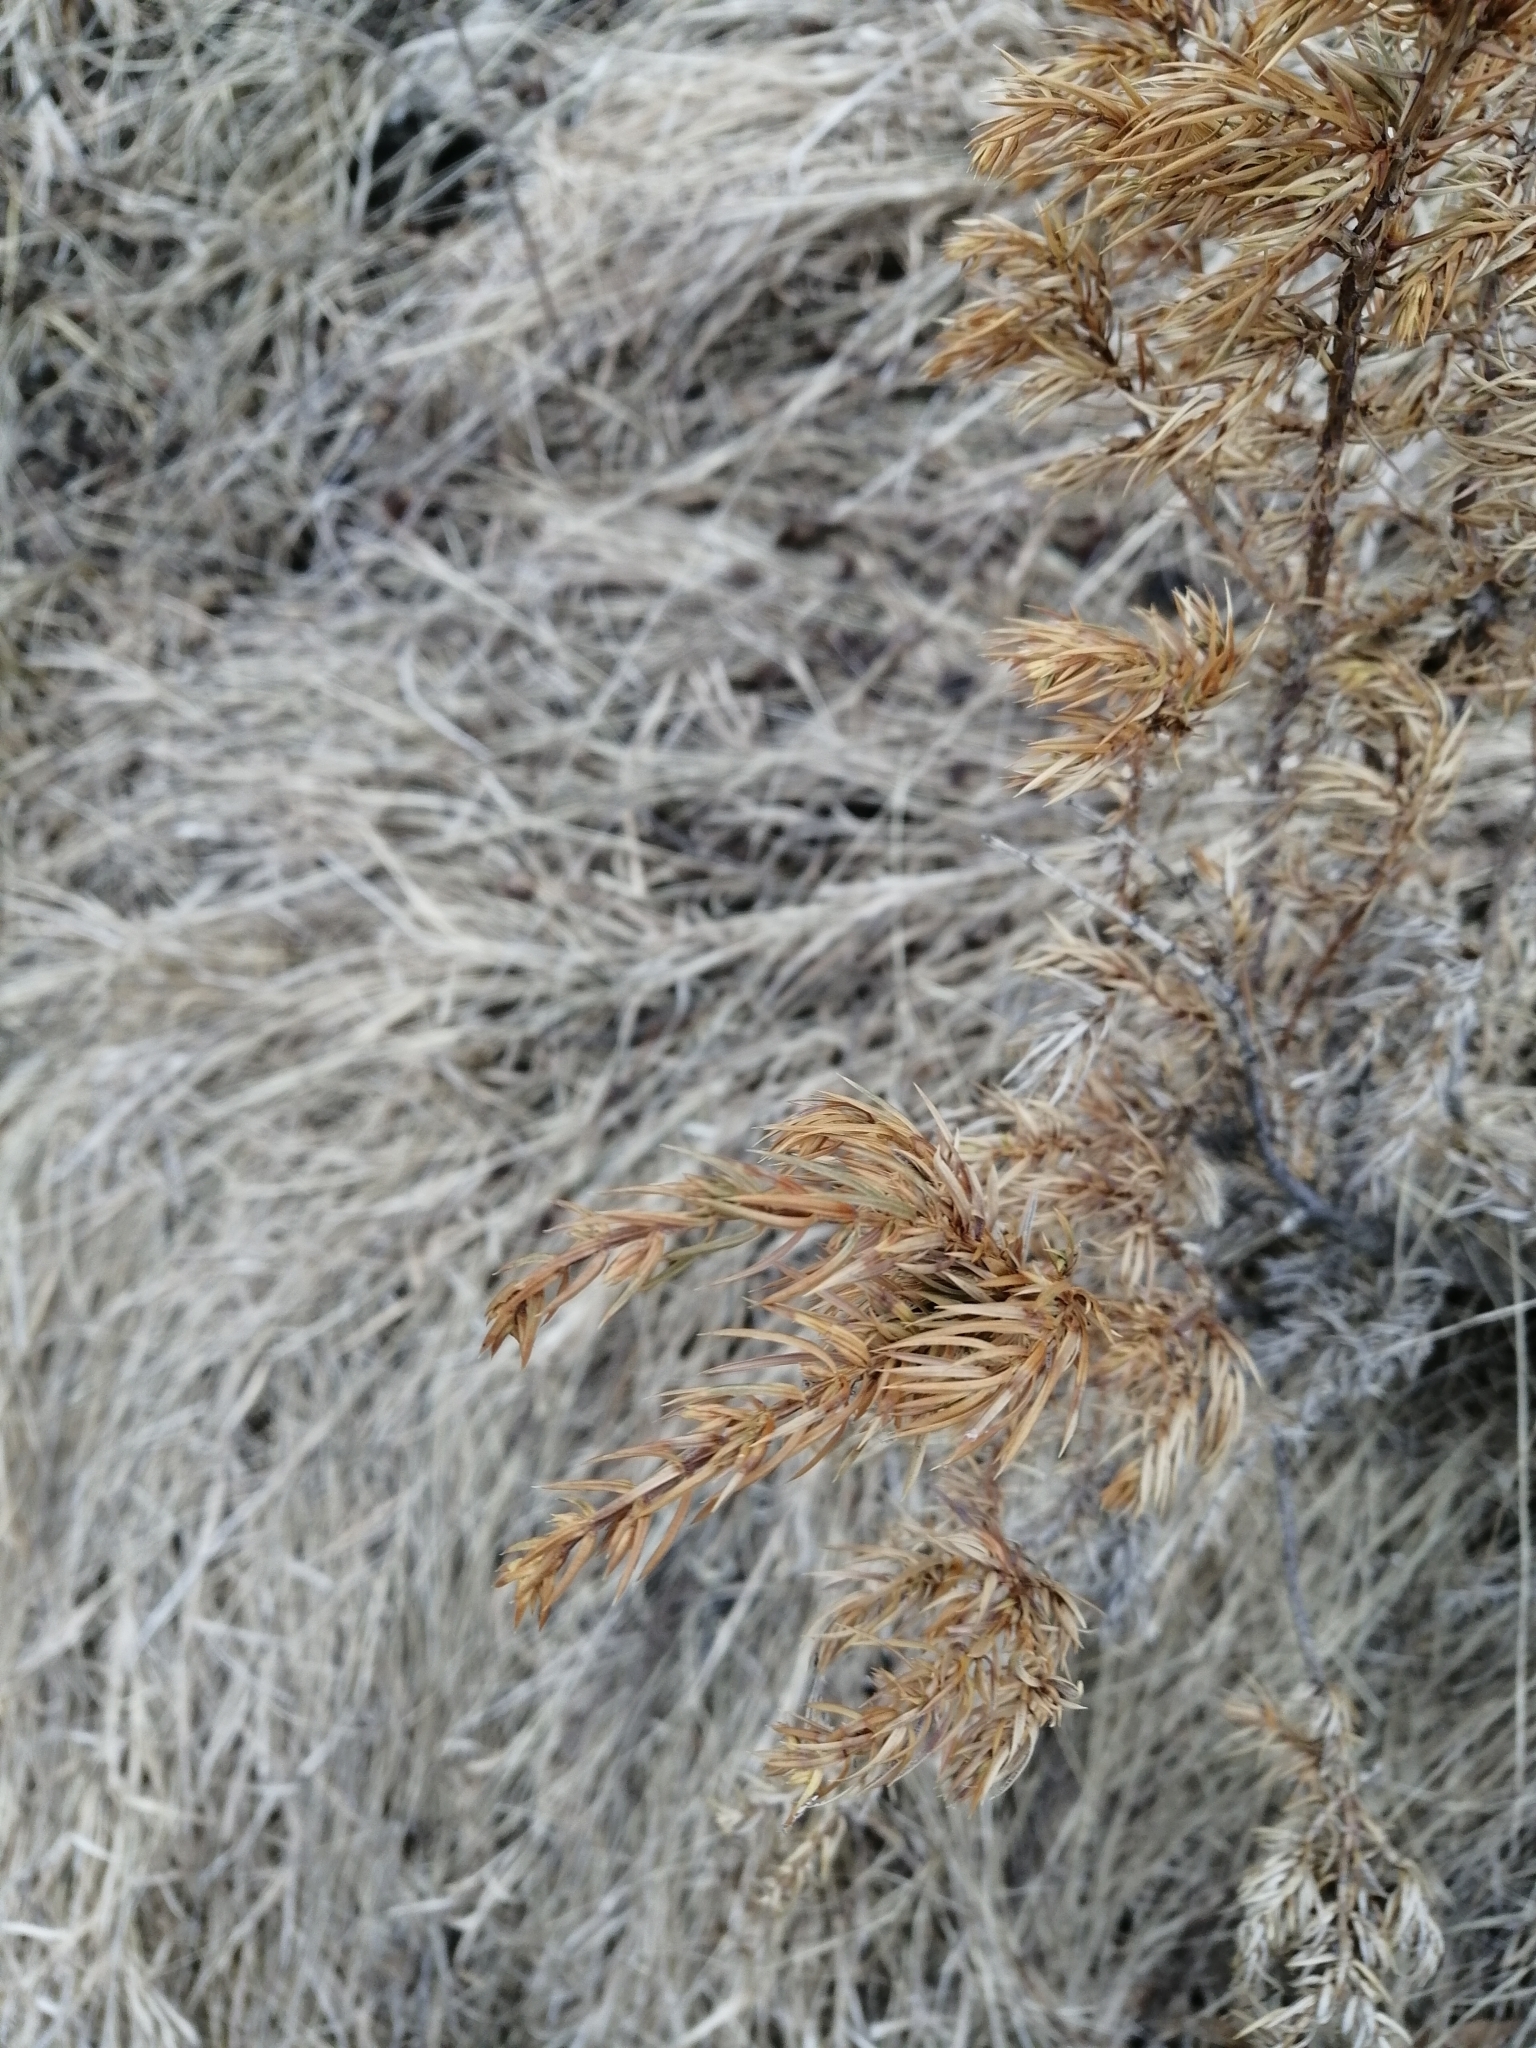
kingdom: Plantae
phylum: Tracheophyta
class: Pinopsida
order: Pinales
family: Cupressaceae
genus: Juniperus
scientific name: Juniperus communis
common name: Common juniper
